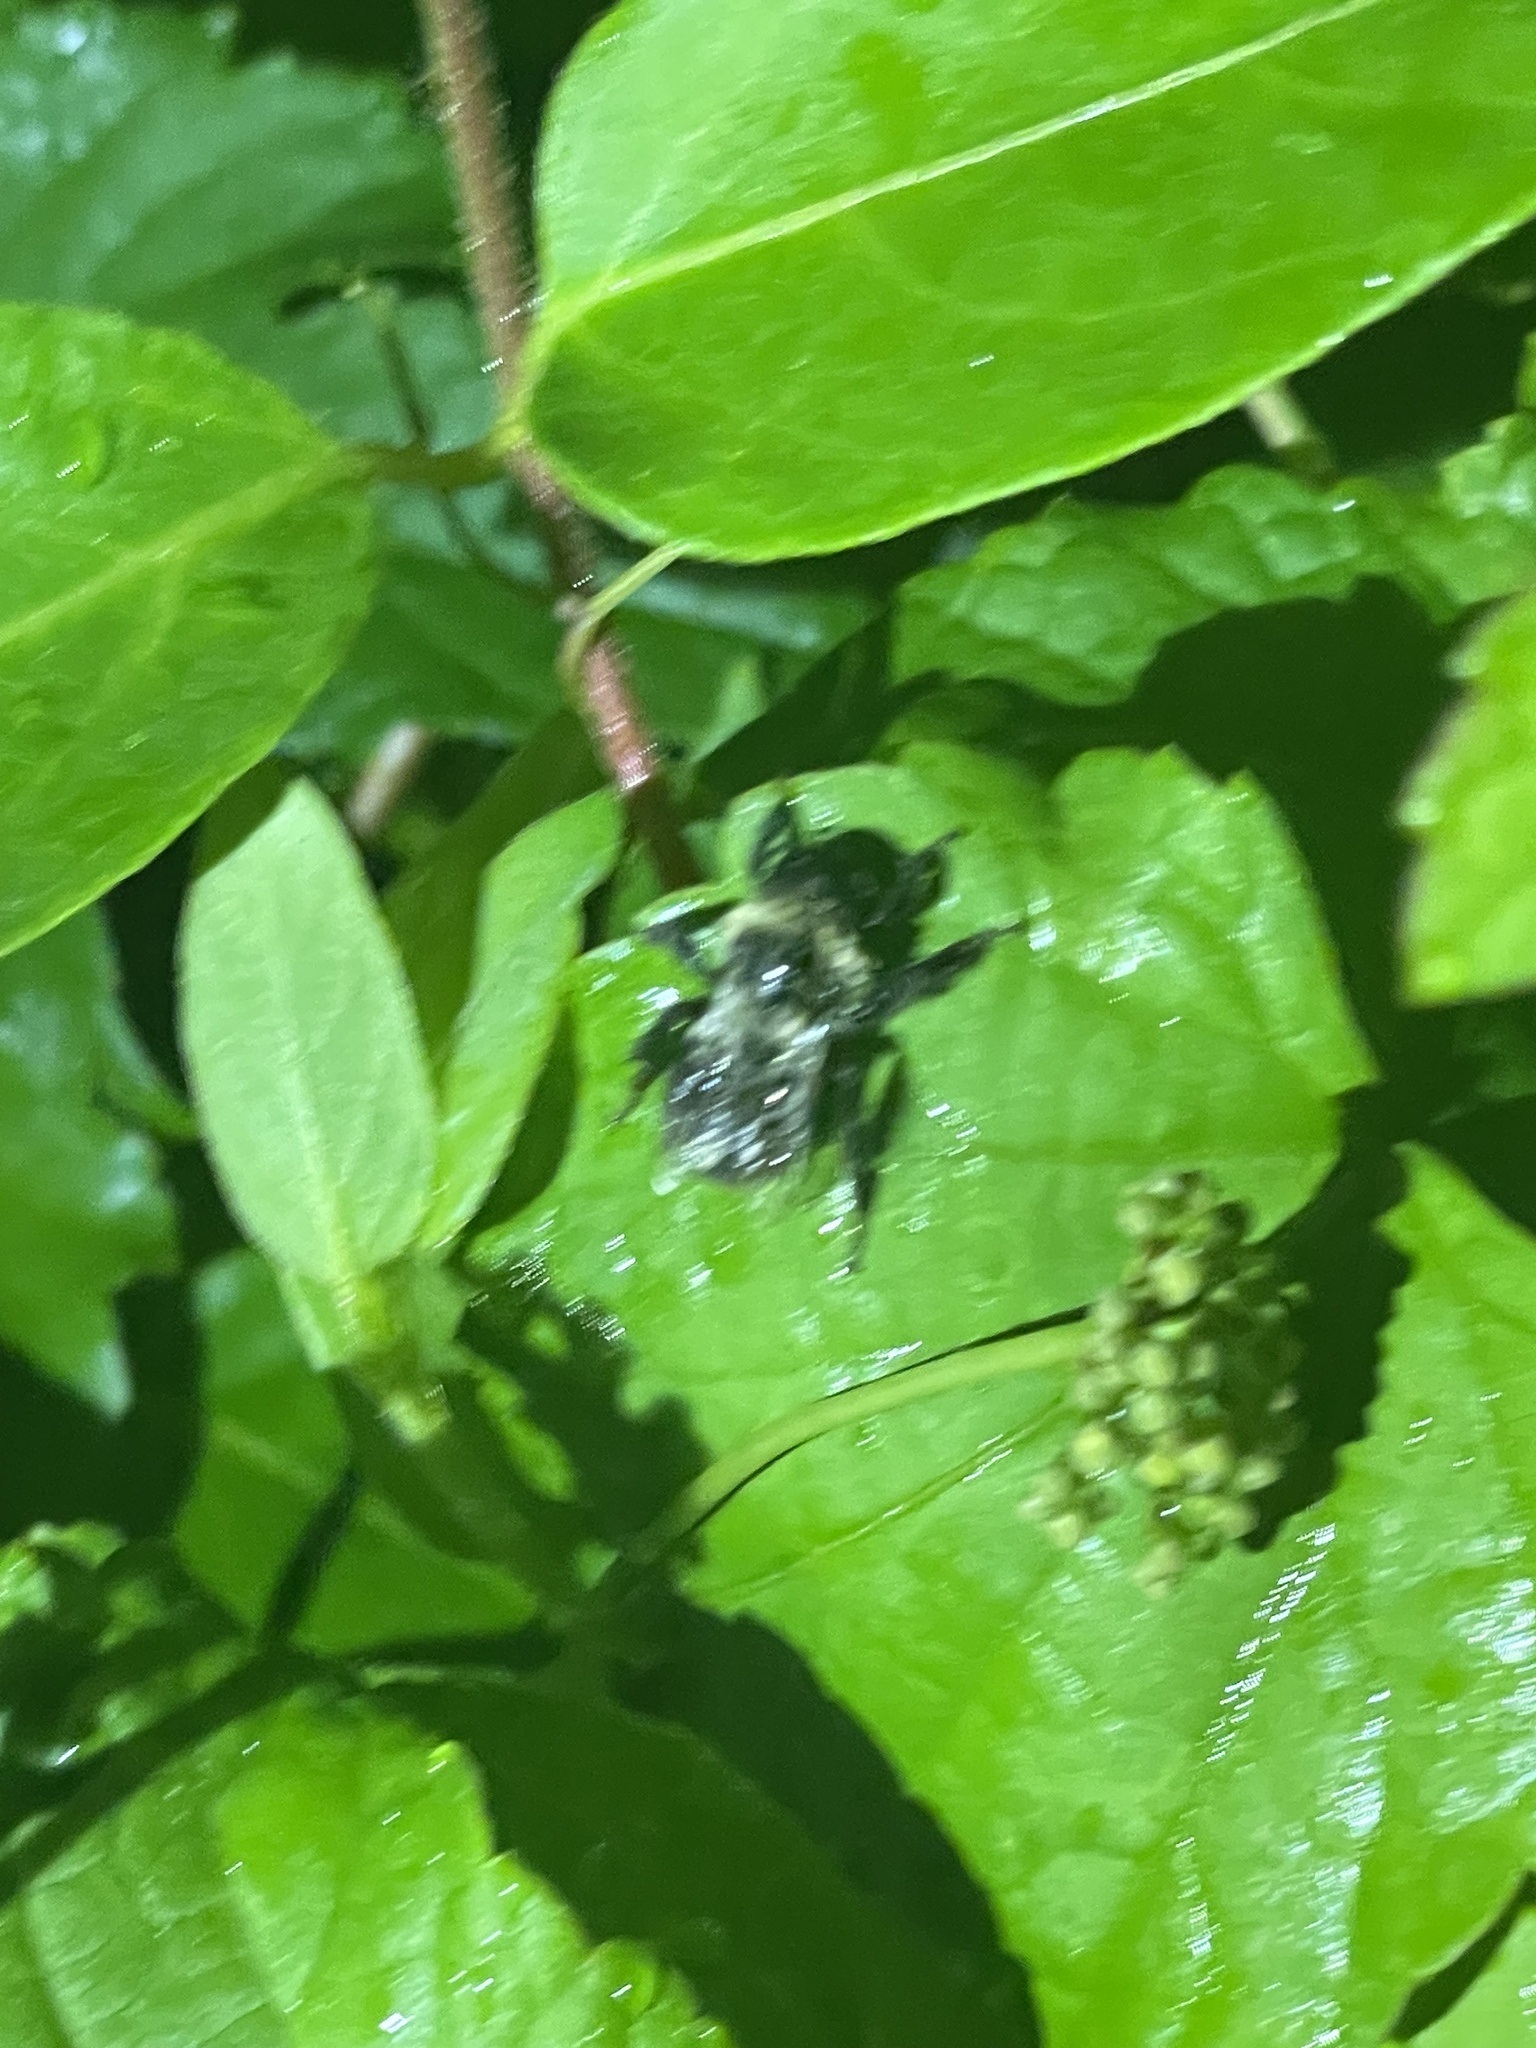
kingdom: Animalia
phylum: Arthropoda
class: Insecta
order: Hymenoptera
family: Apidae
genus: Bombus
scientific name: Bombus impatiens
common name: Common eastern bumble bee
